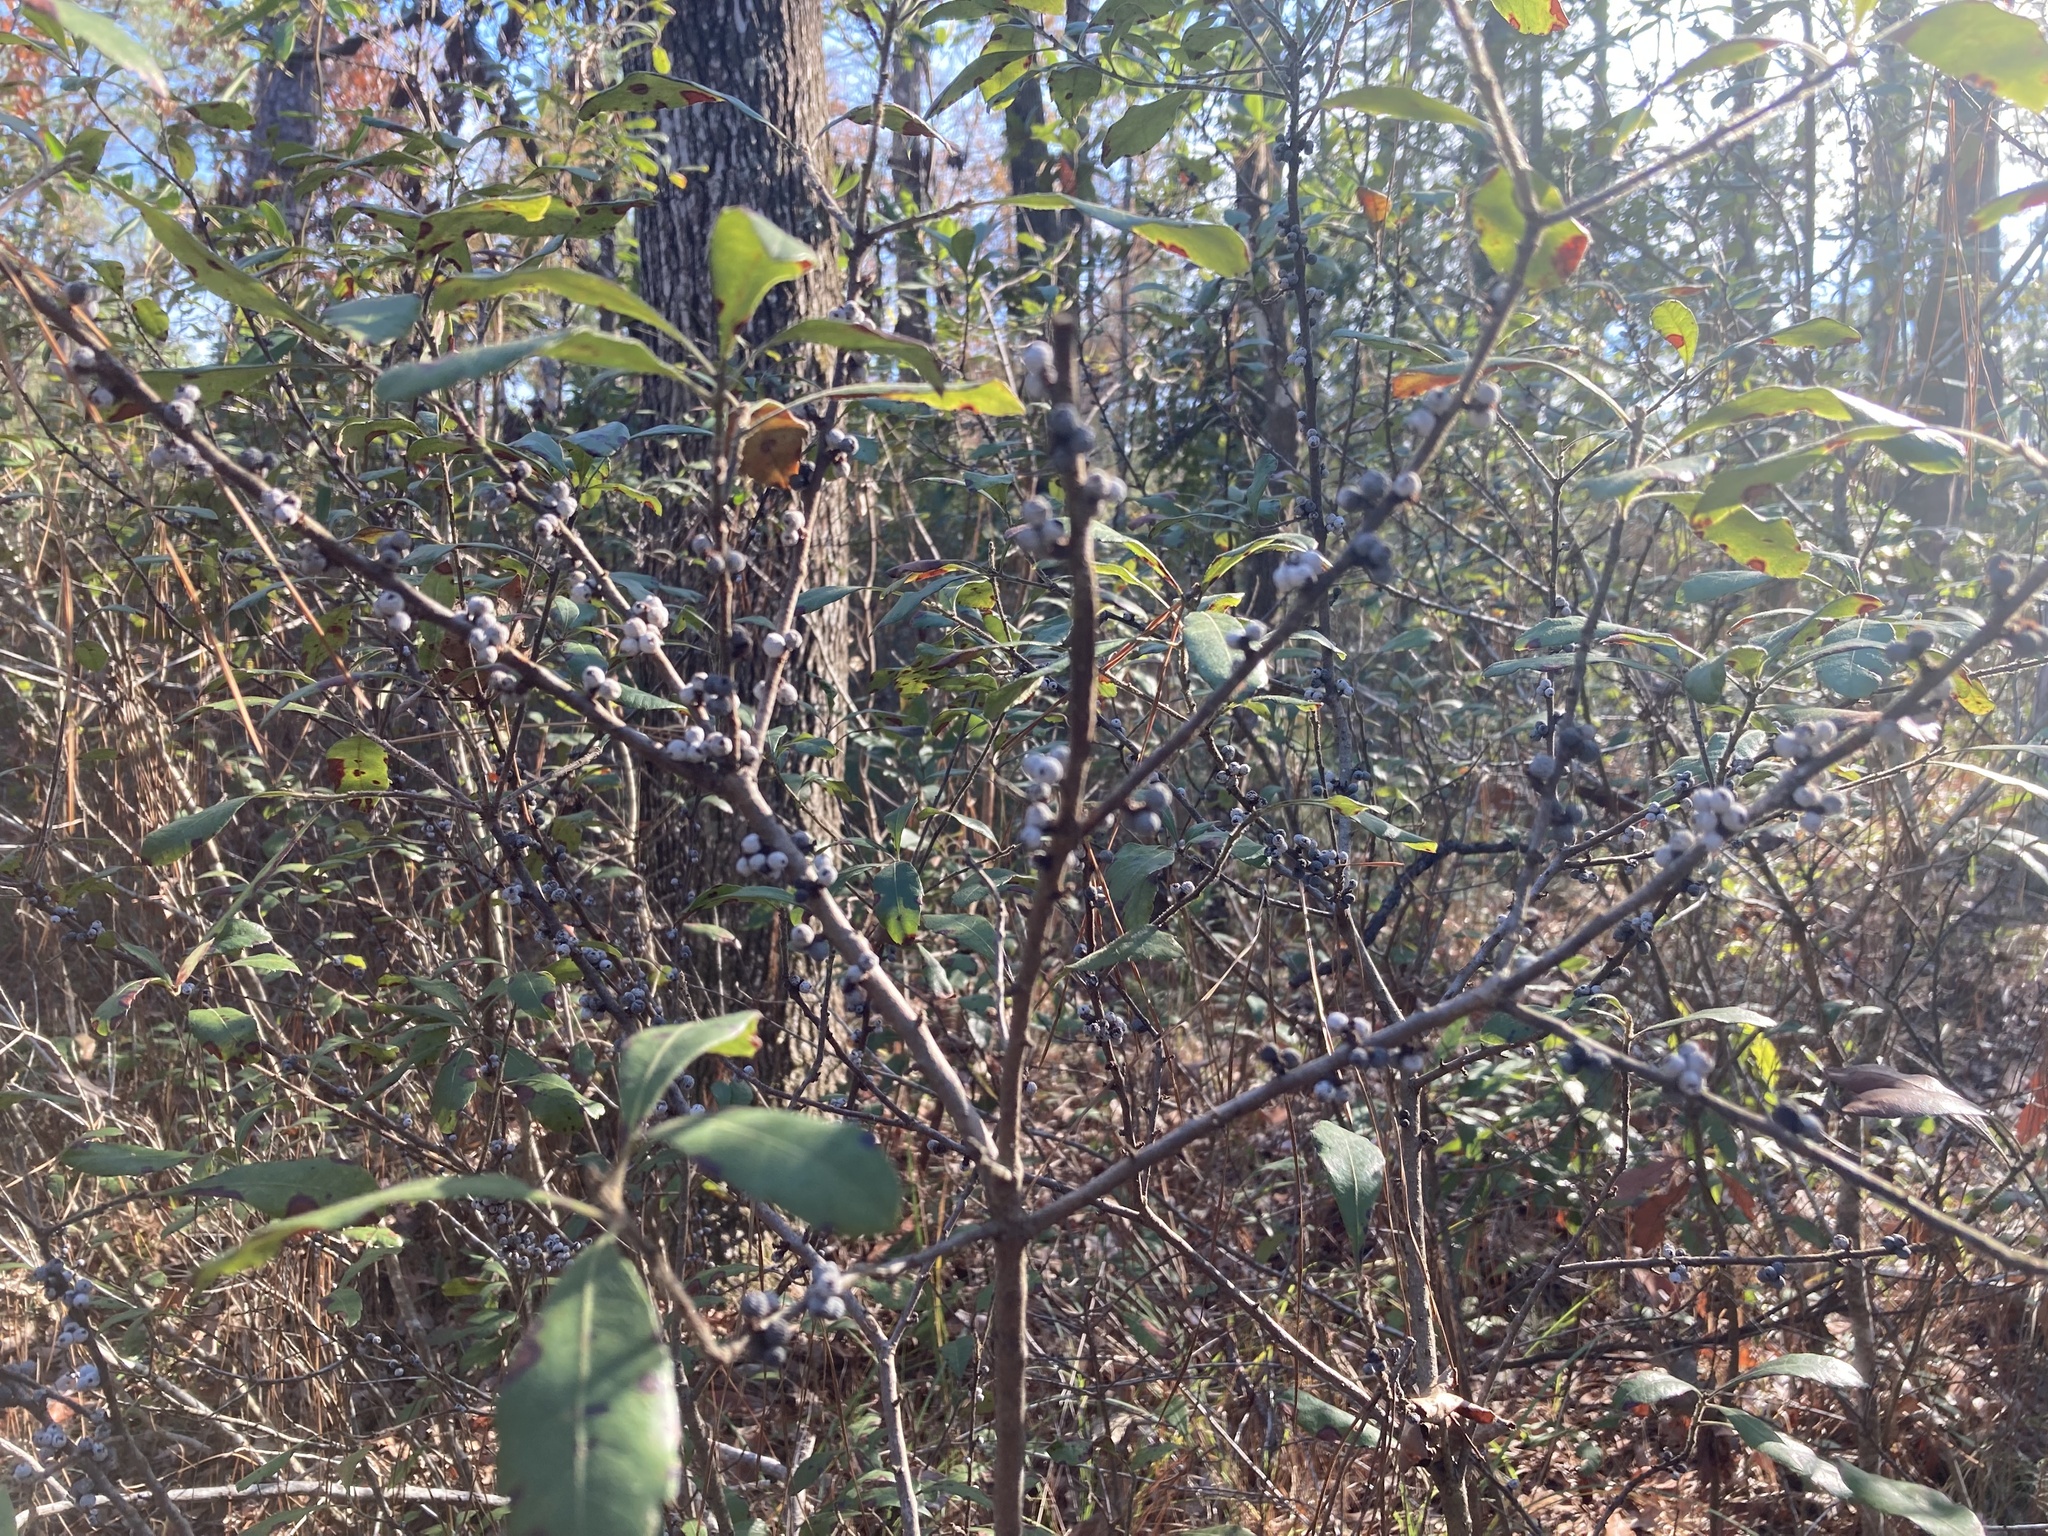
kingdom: Plantae
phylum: Tracheophyta
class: Magnoliopsida
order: Fagales
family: Myricaceae
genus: Morella
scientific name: Morella cerifera
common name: Wax myrtle
